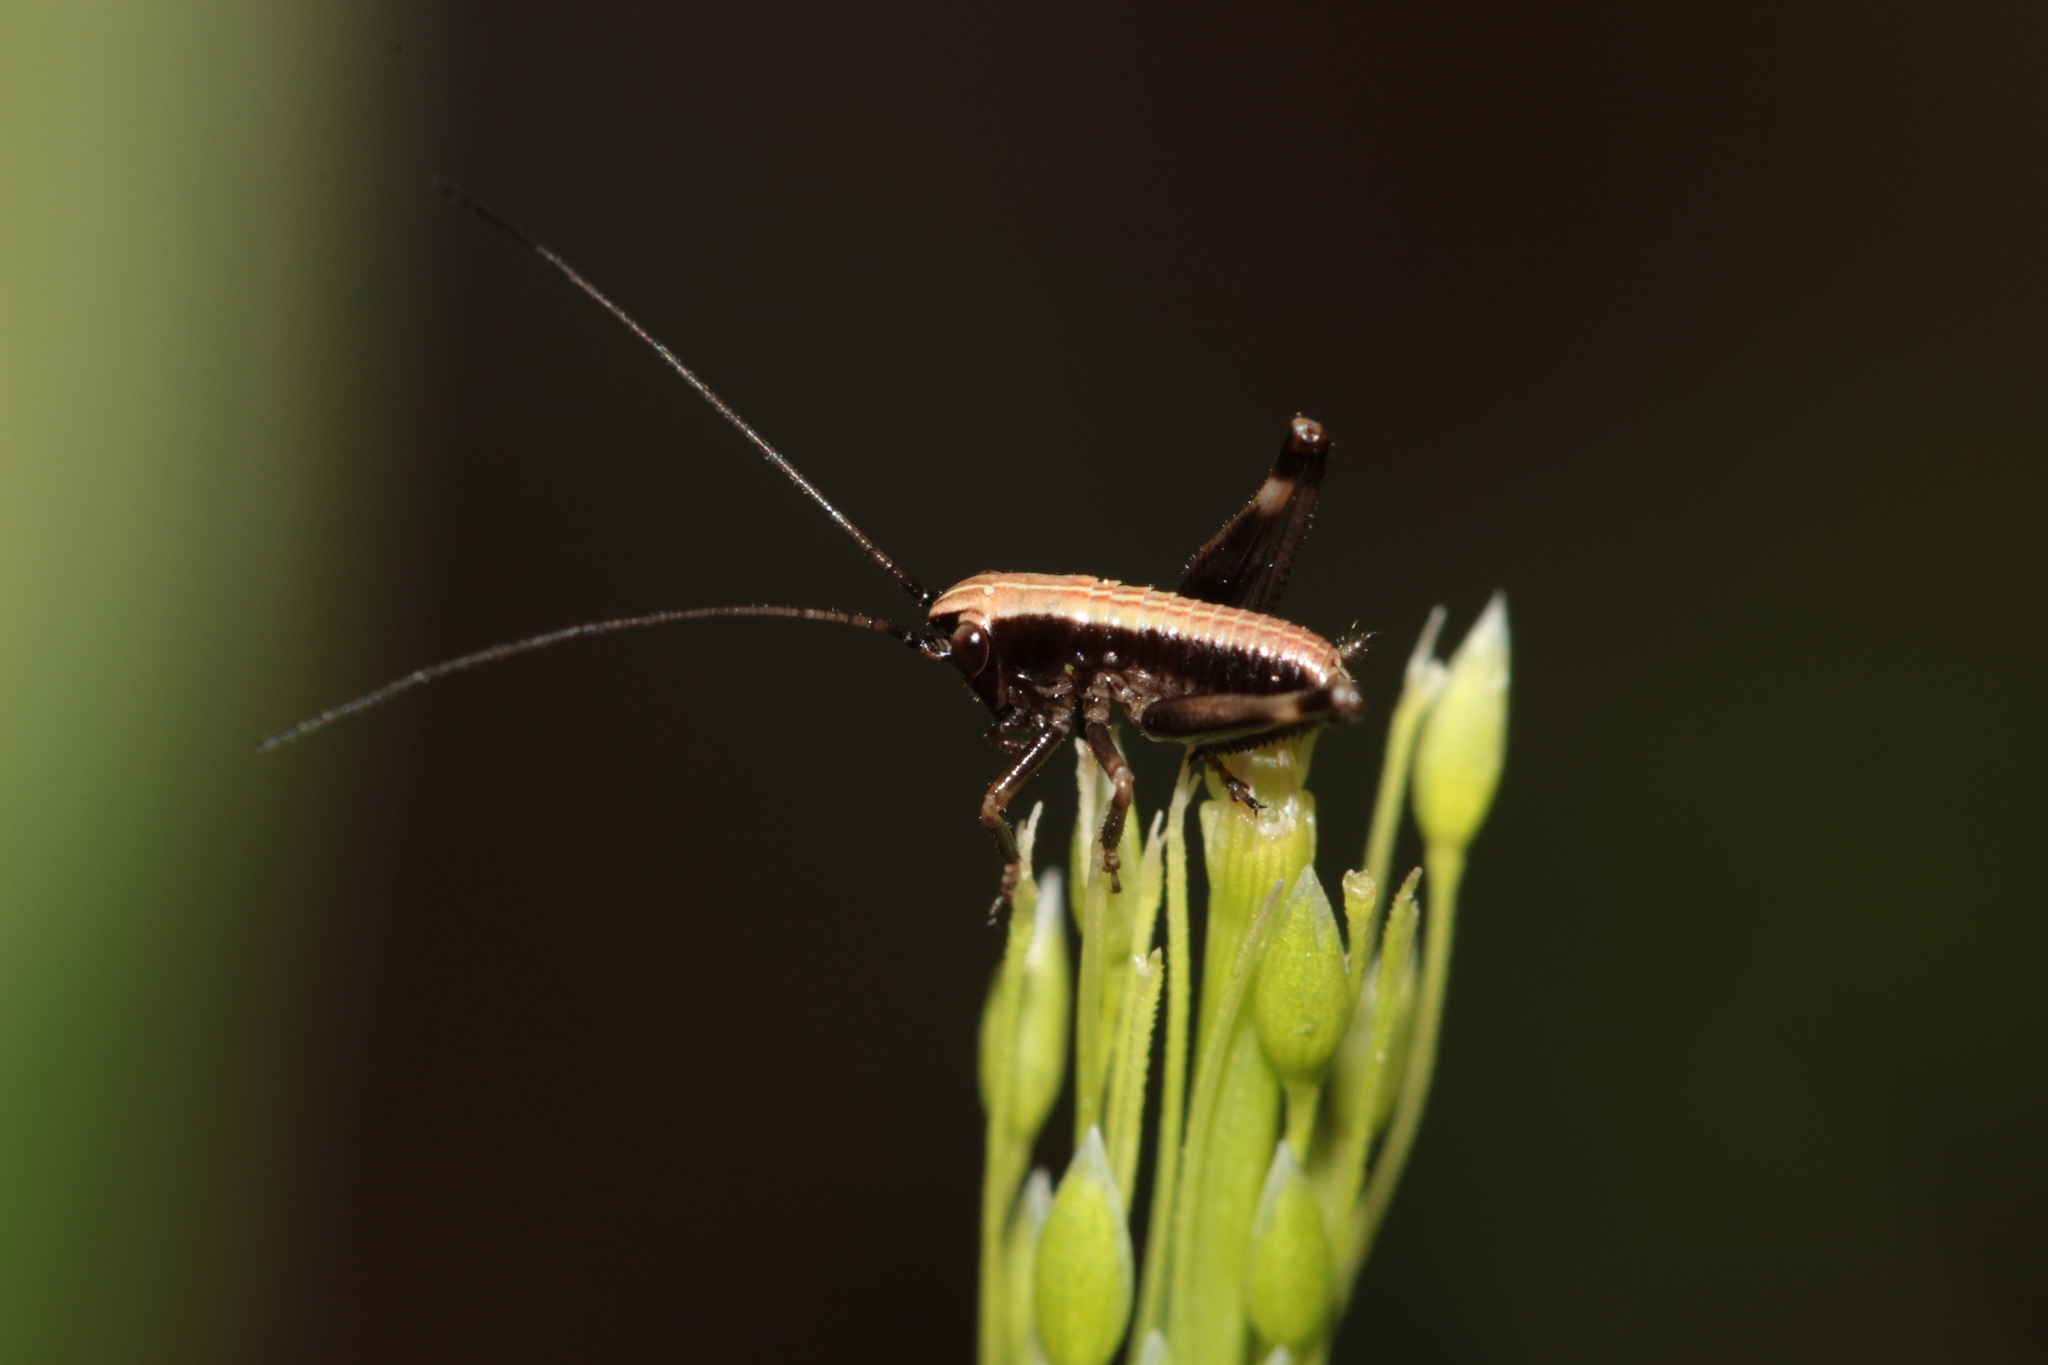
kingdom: Animalia
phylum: Arthropoda
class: Insecta
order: Orthoptera
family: Tettigoniidae
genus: Pholidoptera
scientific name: Pholidoptera griseoaptera
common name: Dark bush-cricket
